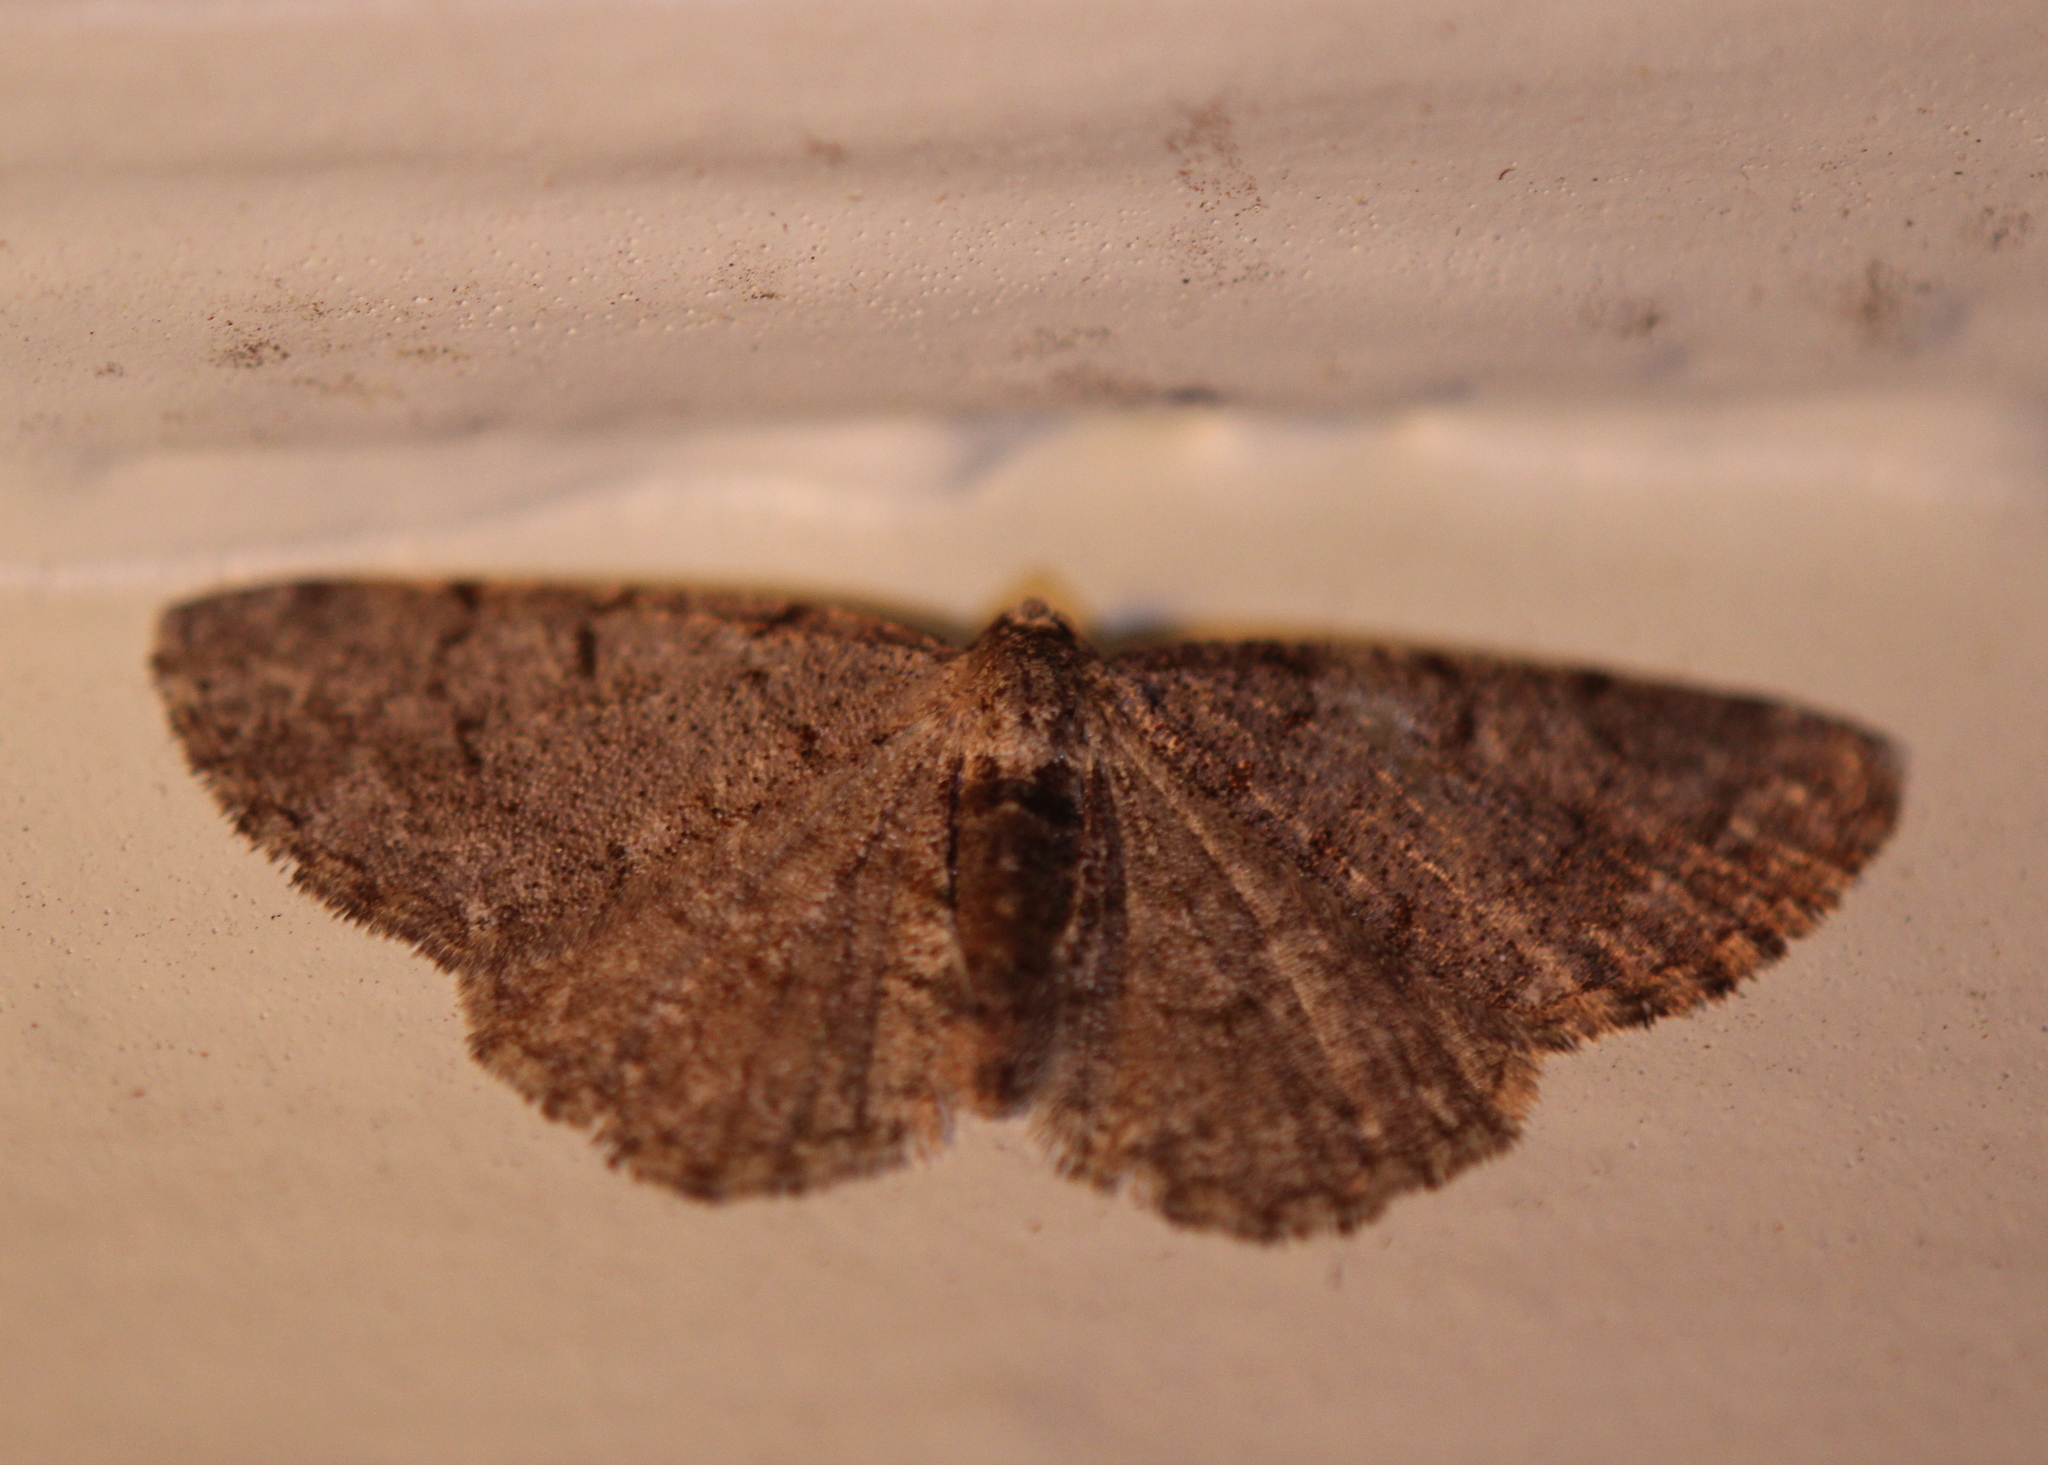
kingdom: Animalia
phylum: Arthropoda
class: Insecta
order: Lepidoptera
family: Geometridae
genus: Aethalura
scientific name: Aethalura intertexta
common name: Four-barred gray
